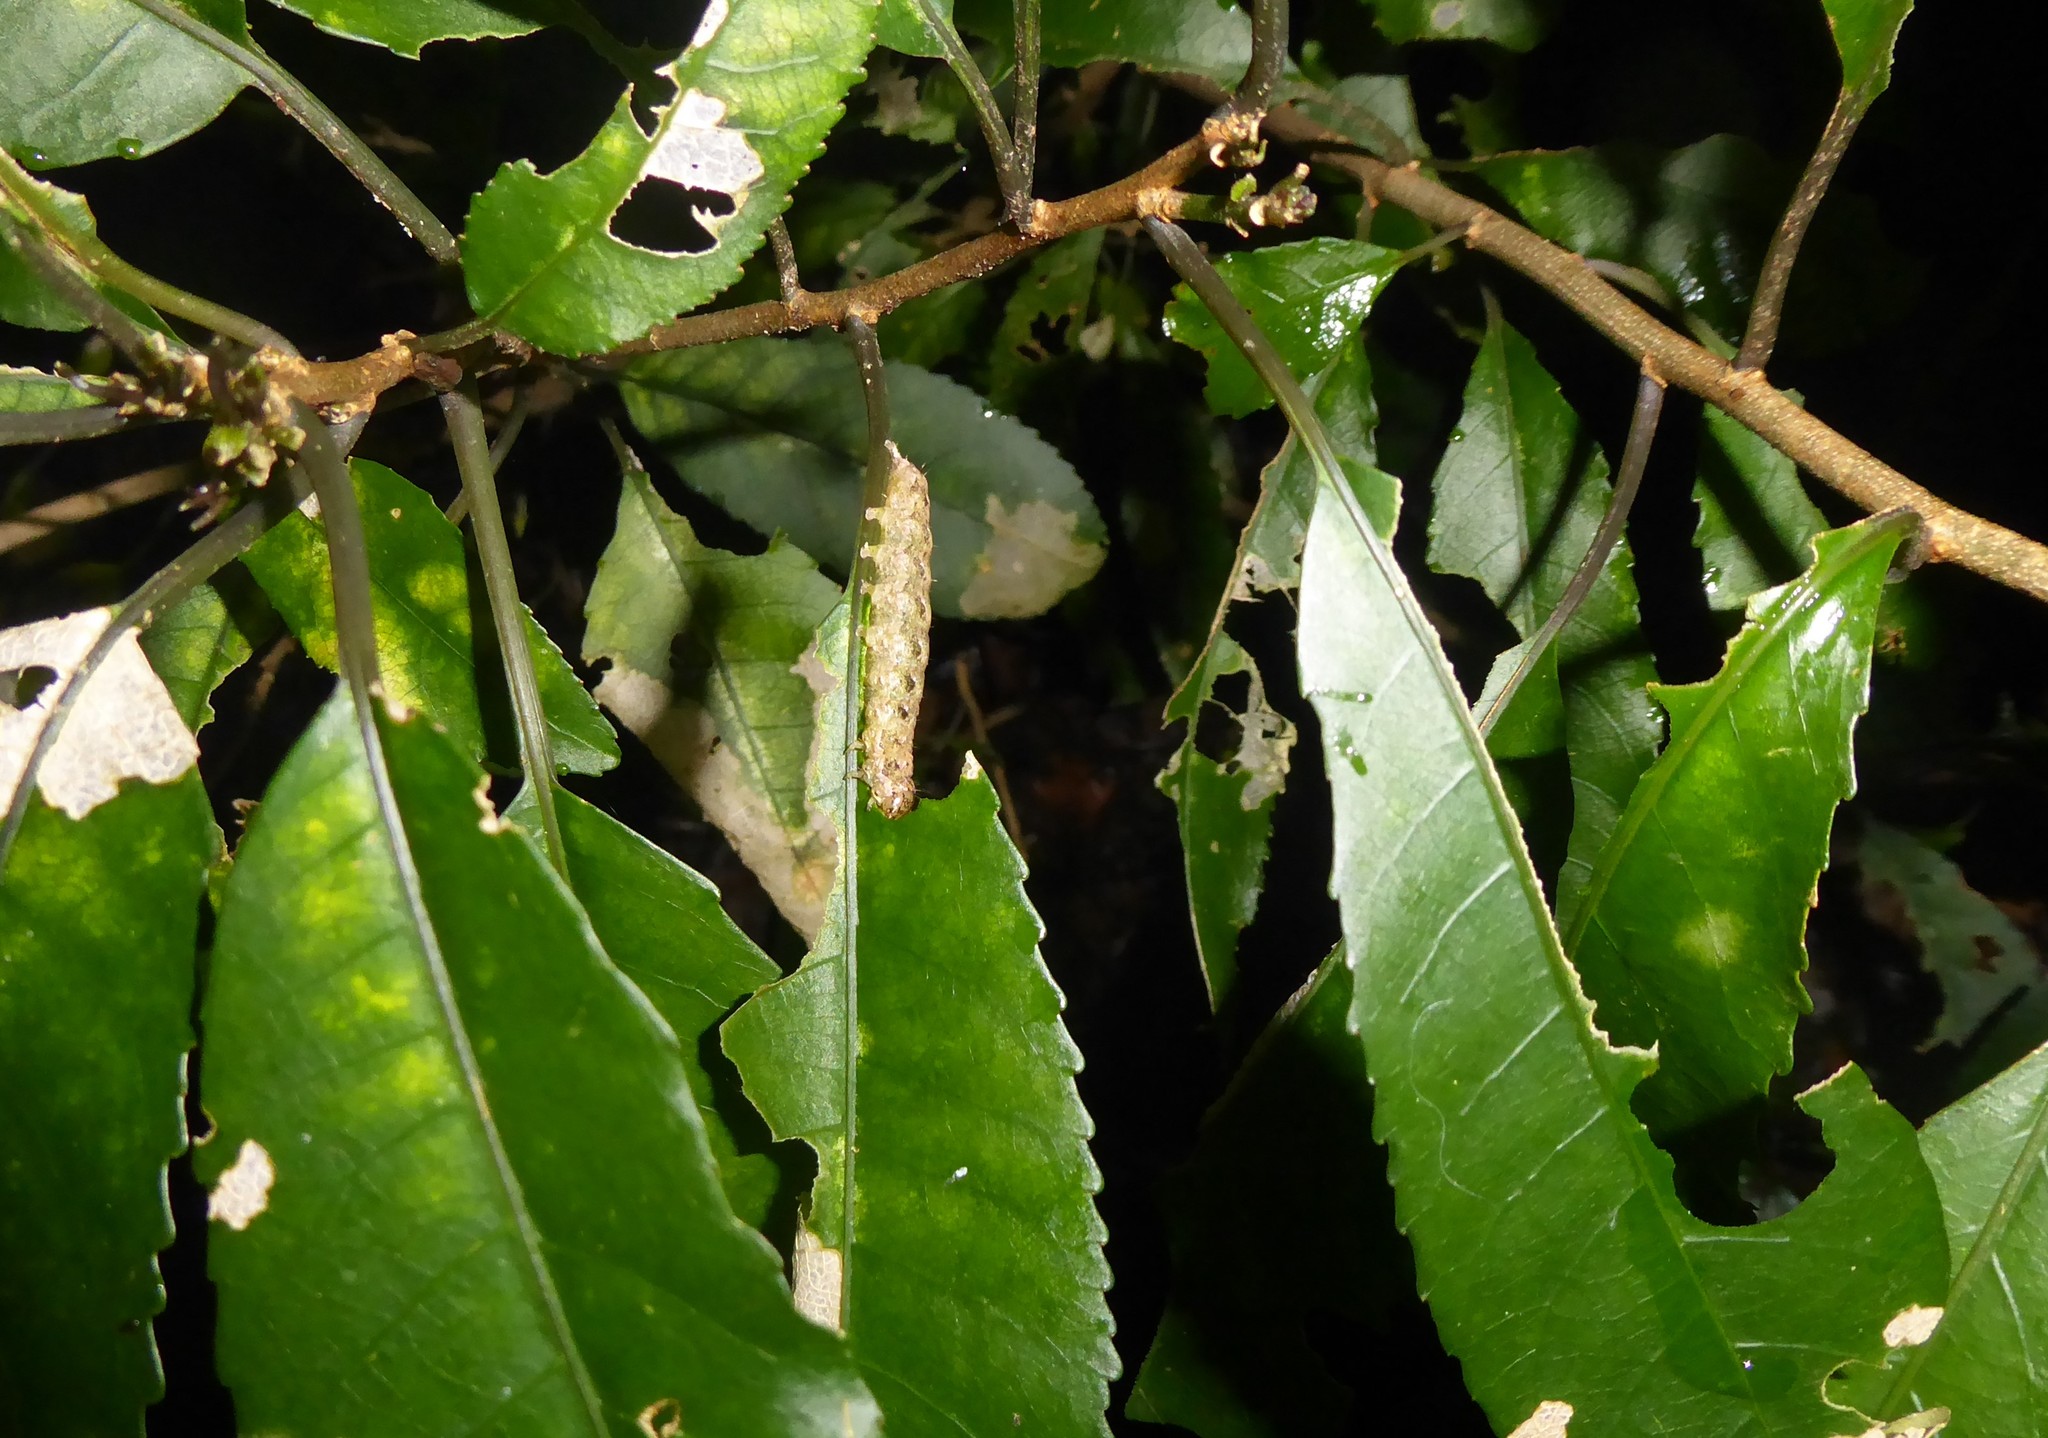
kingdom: Animalia
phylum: Arthropoda
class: Insecta
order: Lepidoptera
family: Noctuidae
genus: Feredayia
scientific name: Feredayia grammosa
